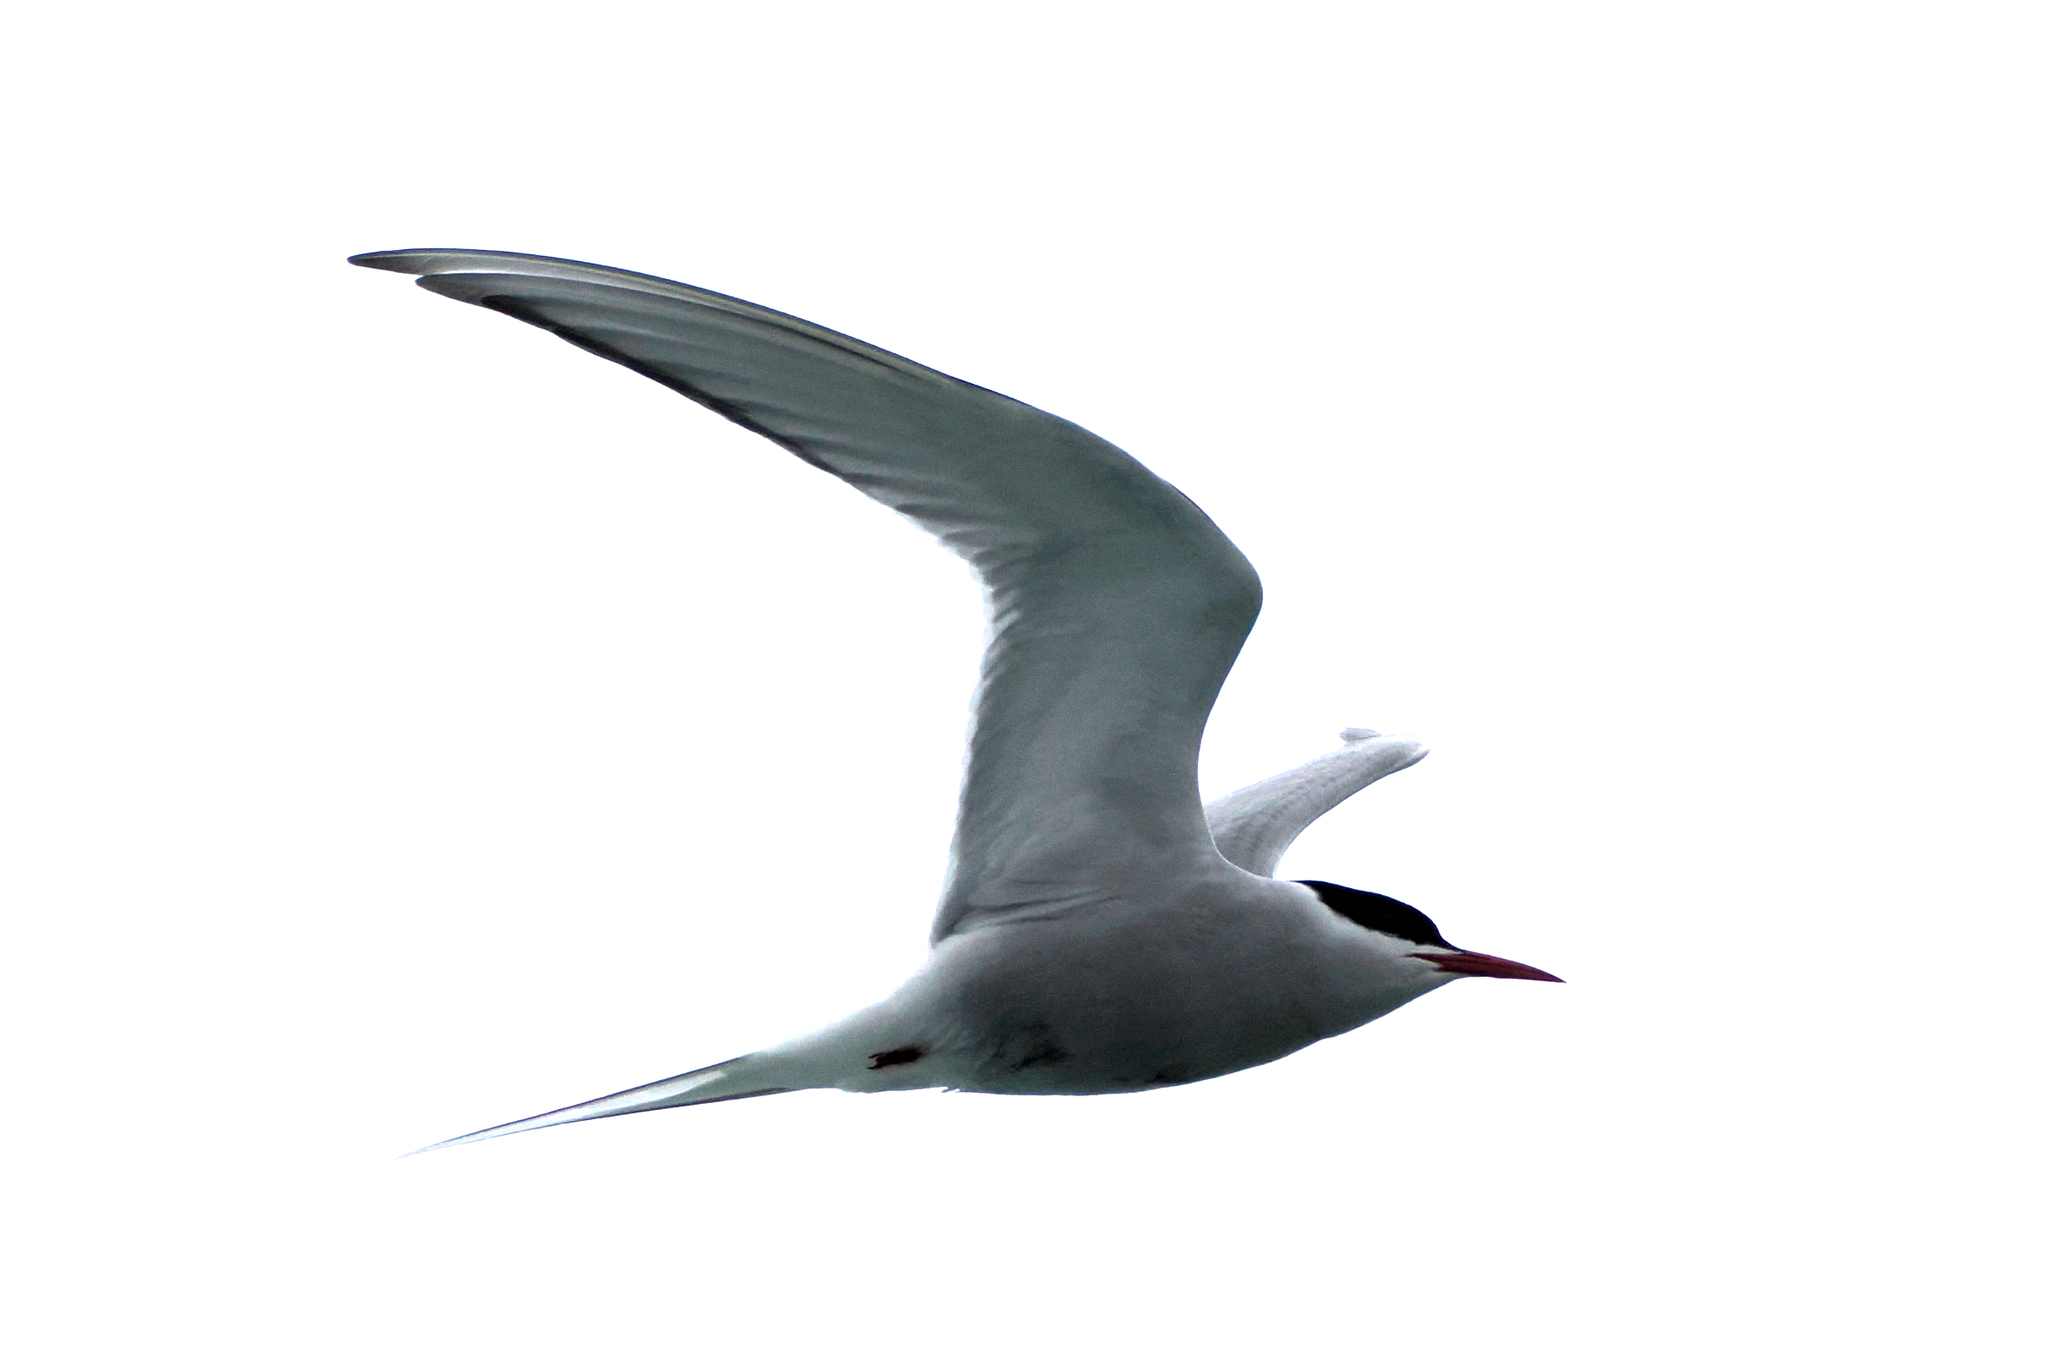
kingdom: Animalia
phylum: Chordata
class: Aves
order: Charadriiformes
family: Laridae
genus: Sterna
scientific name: Sterna paradisaea
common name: Arctic tern
